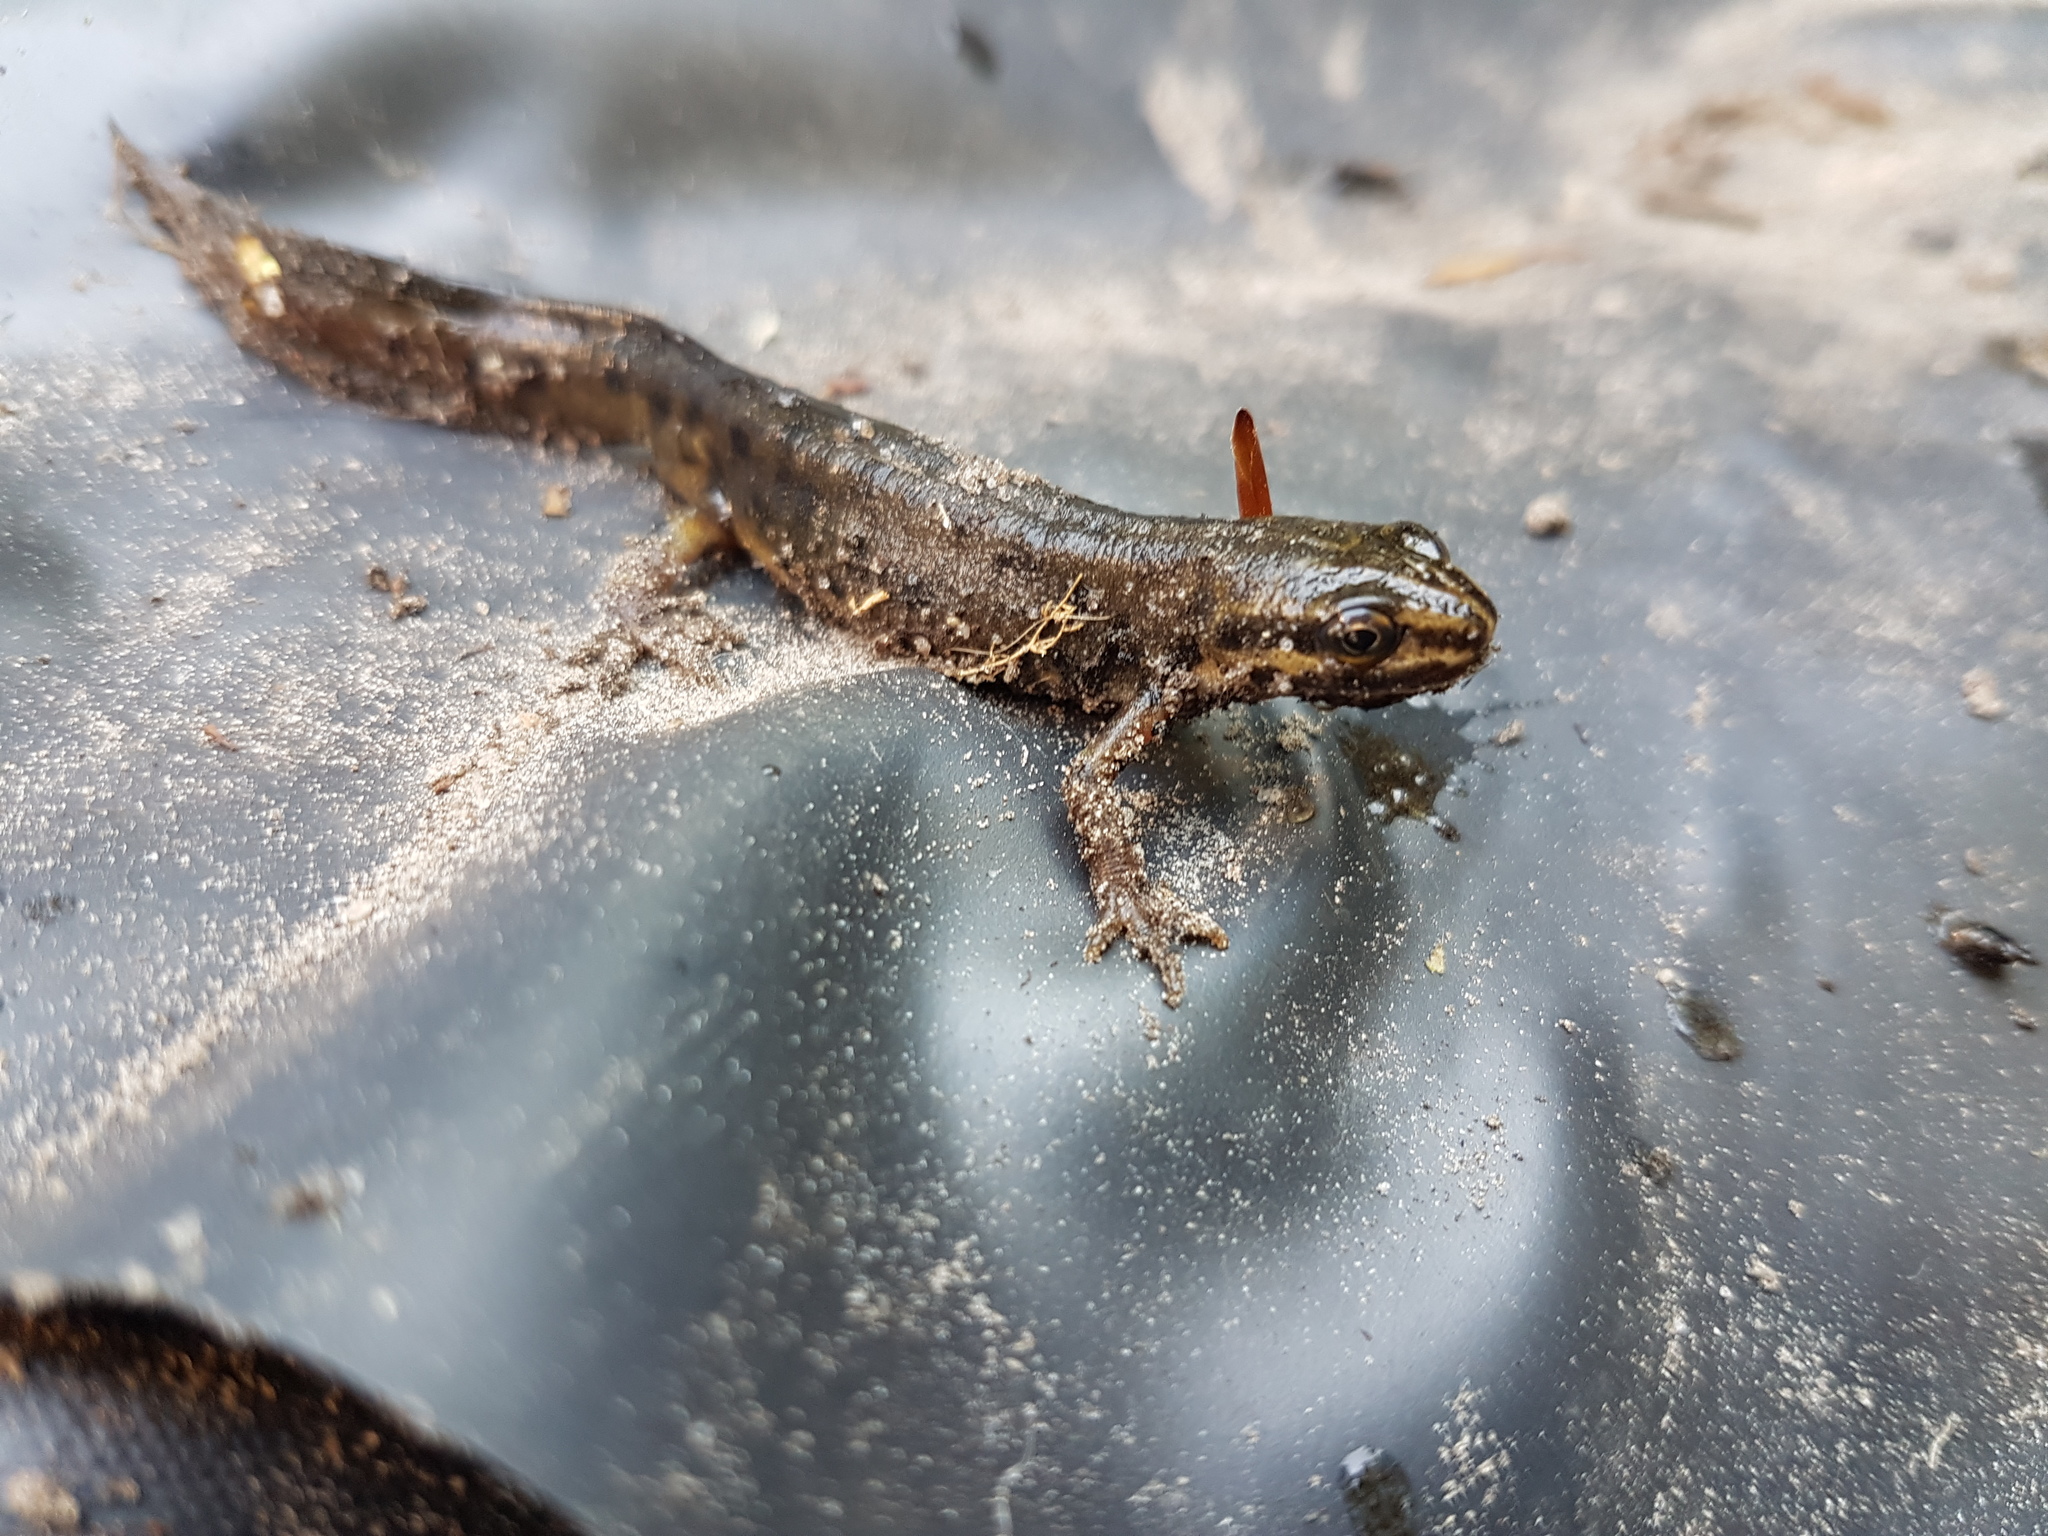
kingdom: Animalia
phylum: Chordata
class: Amphibia
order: Caudata
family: Salamandridae
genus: Lissotriton
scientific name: Lissotriton vulgaris
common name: Smooth newt
